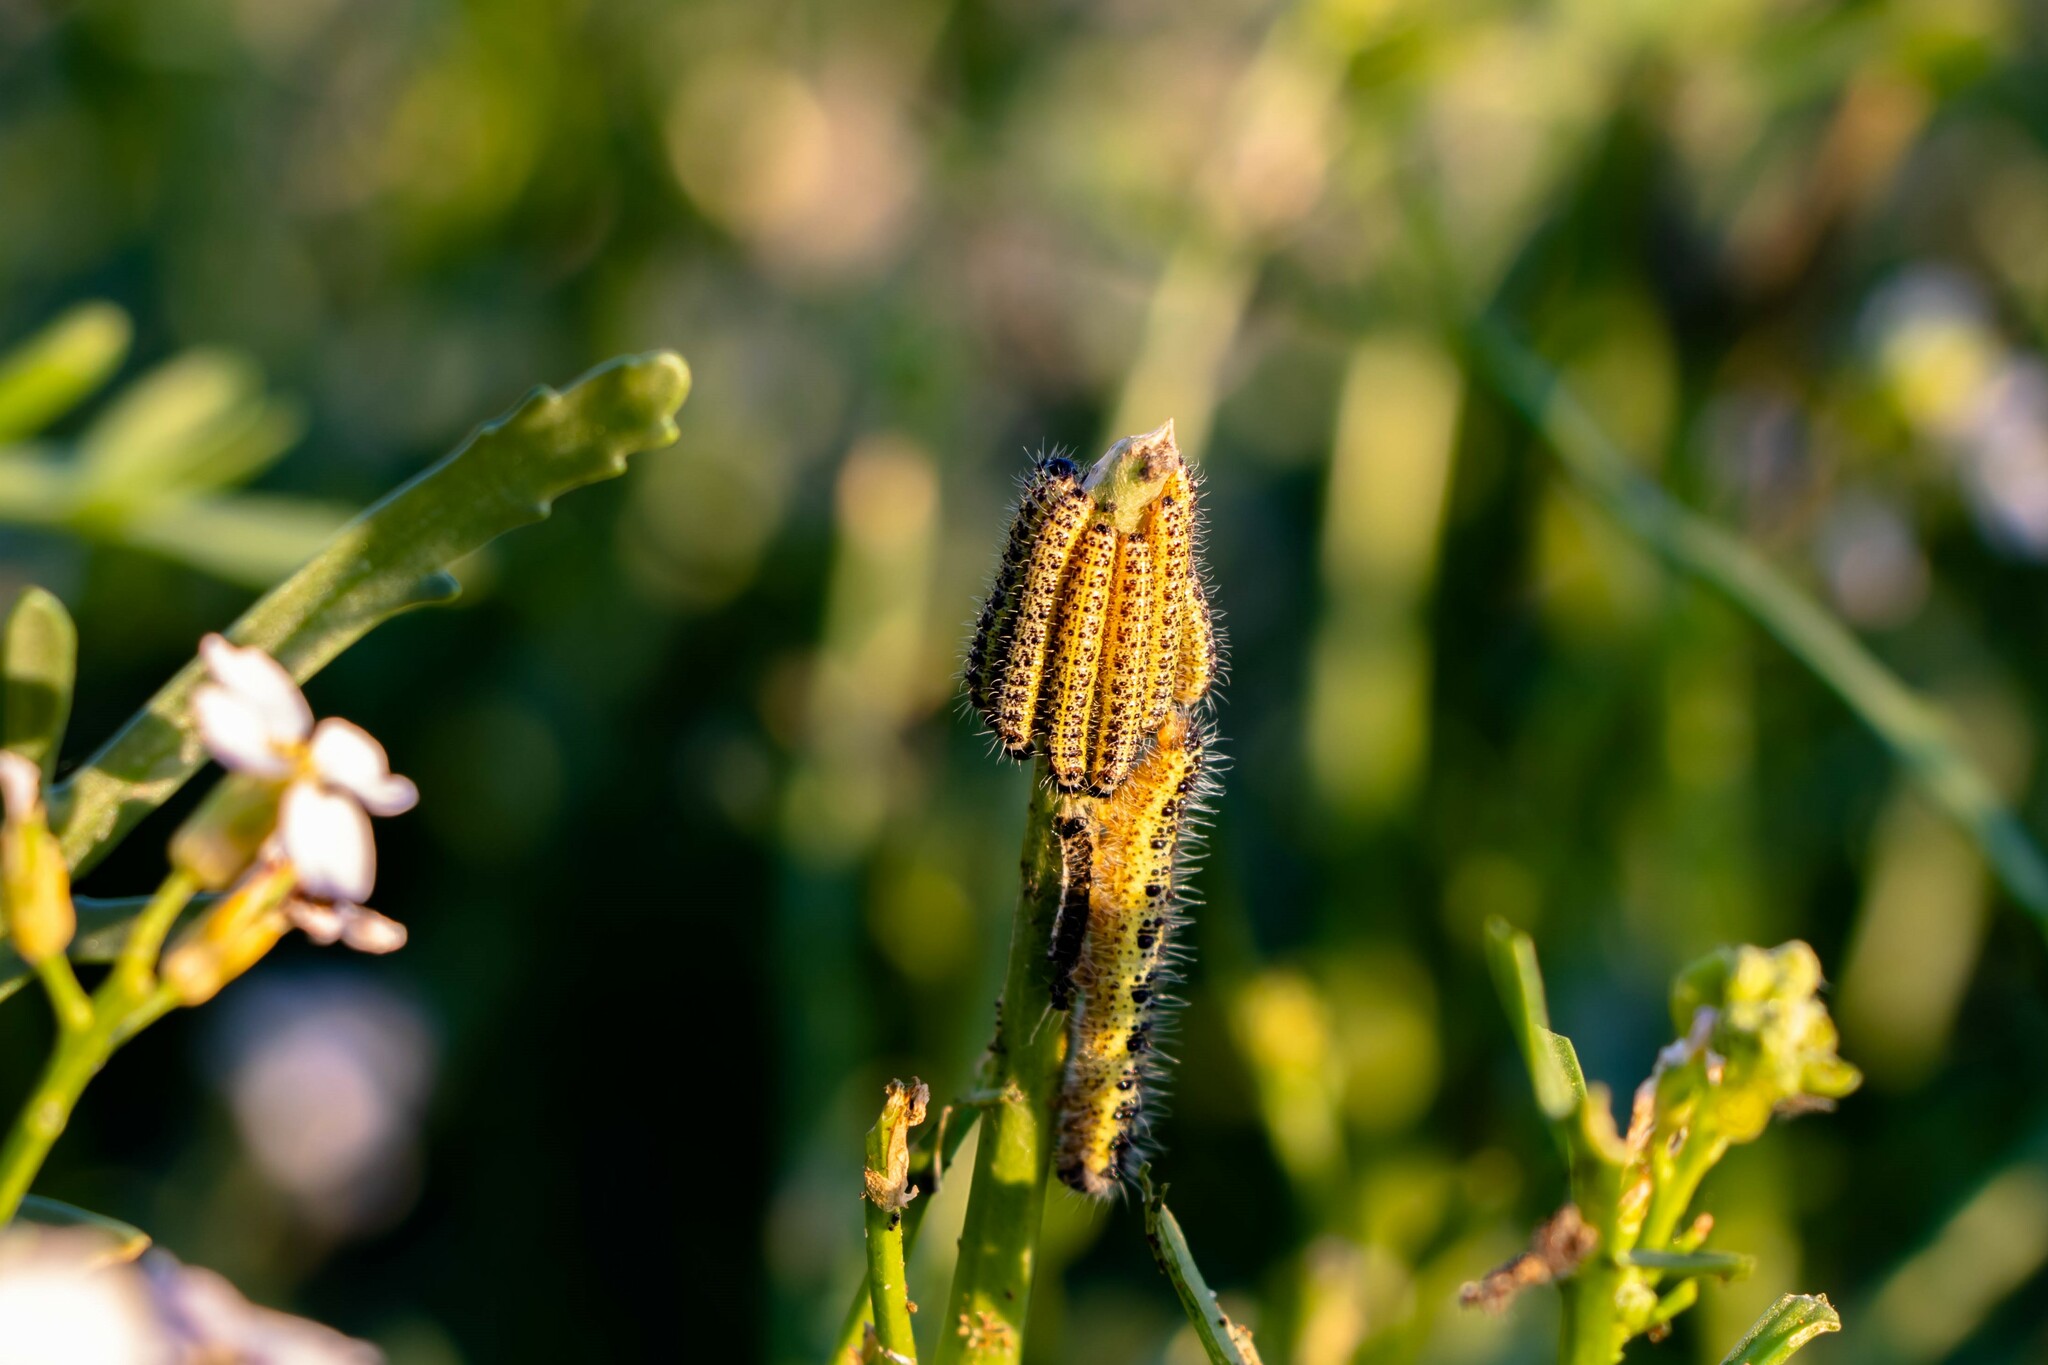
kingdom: Animalia
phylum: Arthropoda
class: Insecta
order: Lepidoptera
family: Pieridae
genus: Pieris
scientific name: Pieris brassicae
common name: Large white
